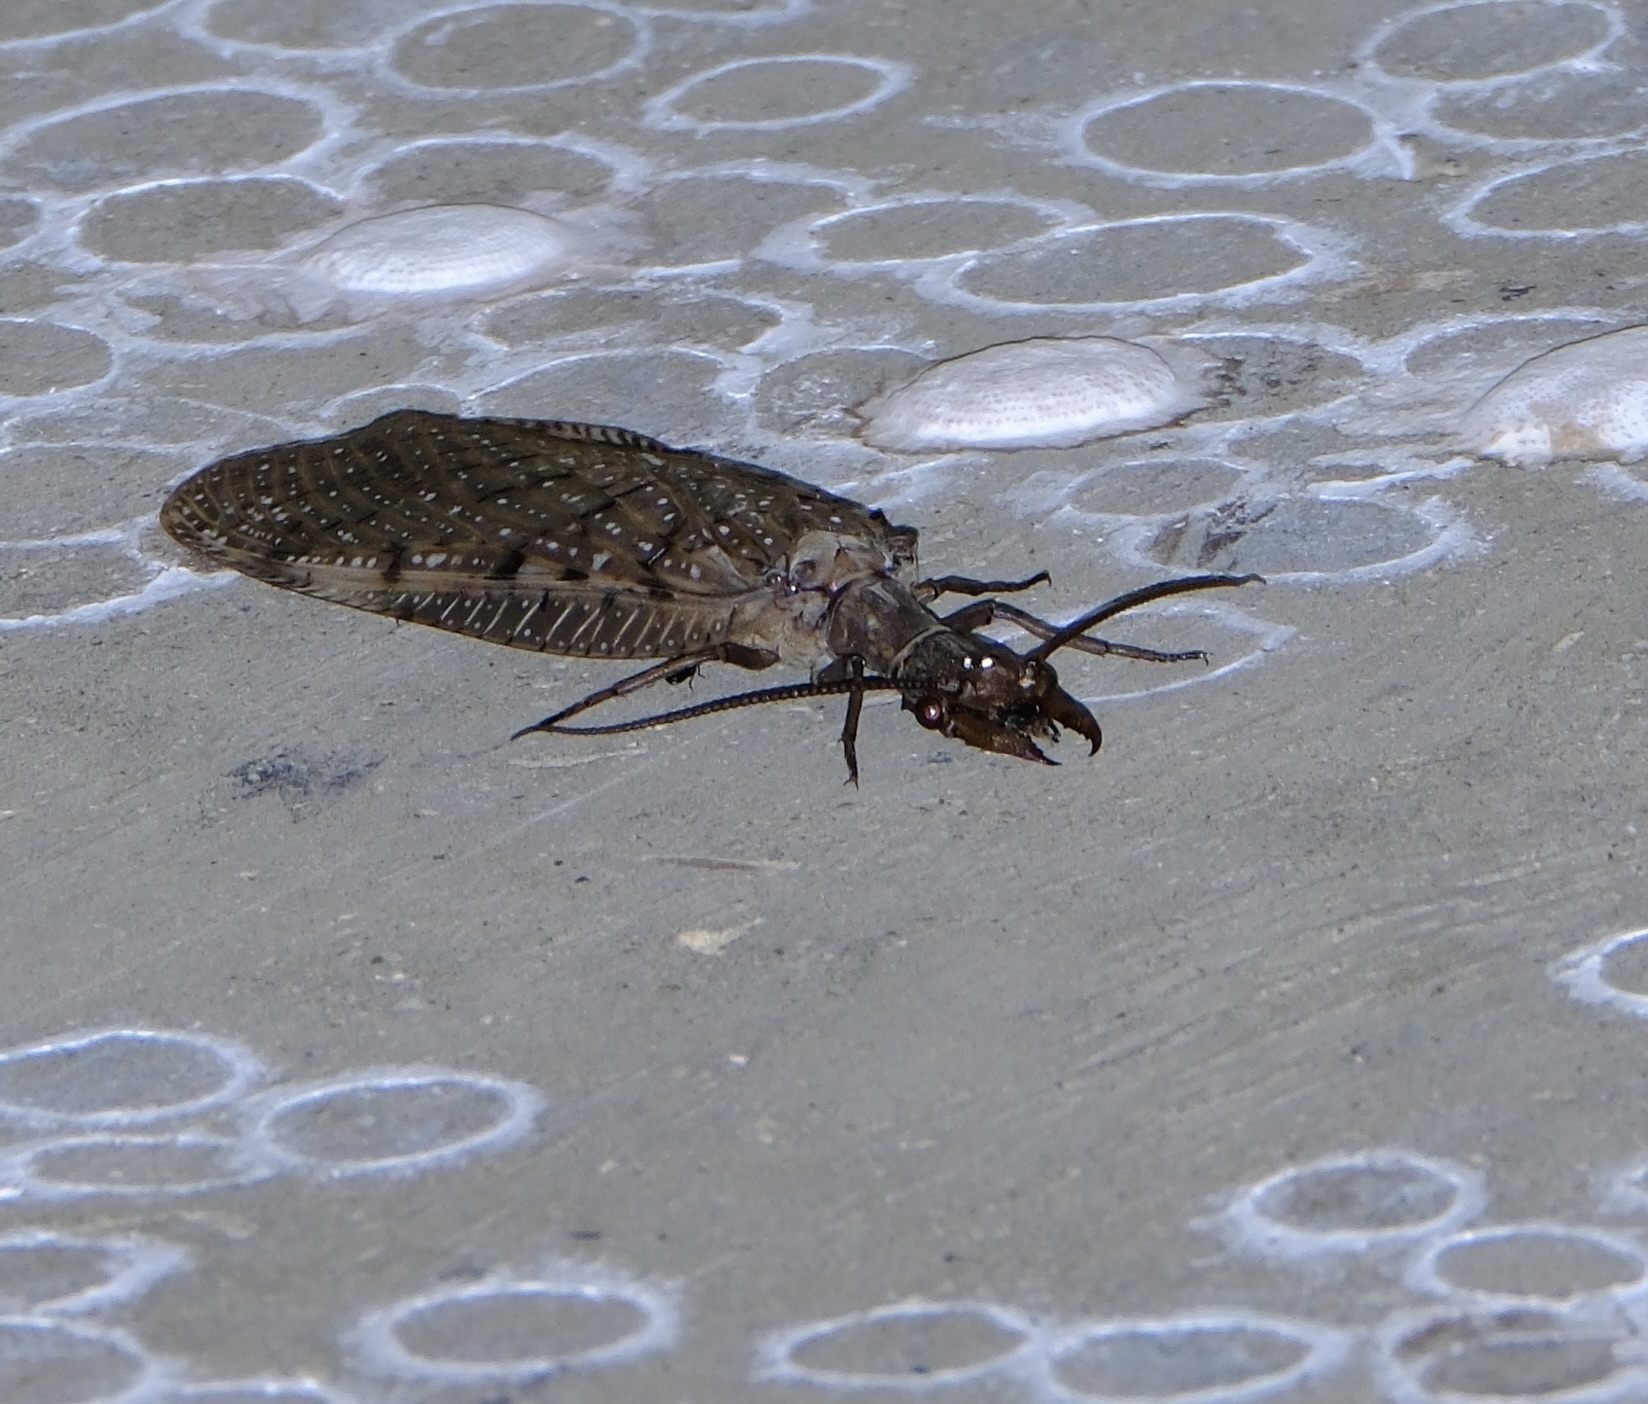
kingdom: Animalia
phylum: Arthropoda
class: Insecta
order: Megaloptera
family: Corydalidae
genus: Corydalus
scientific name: Corydalus cornutus
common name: Dobsonfly
